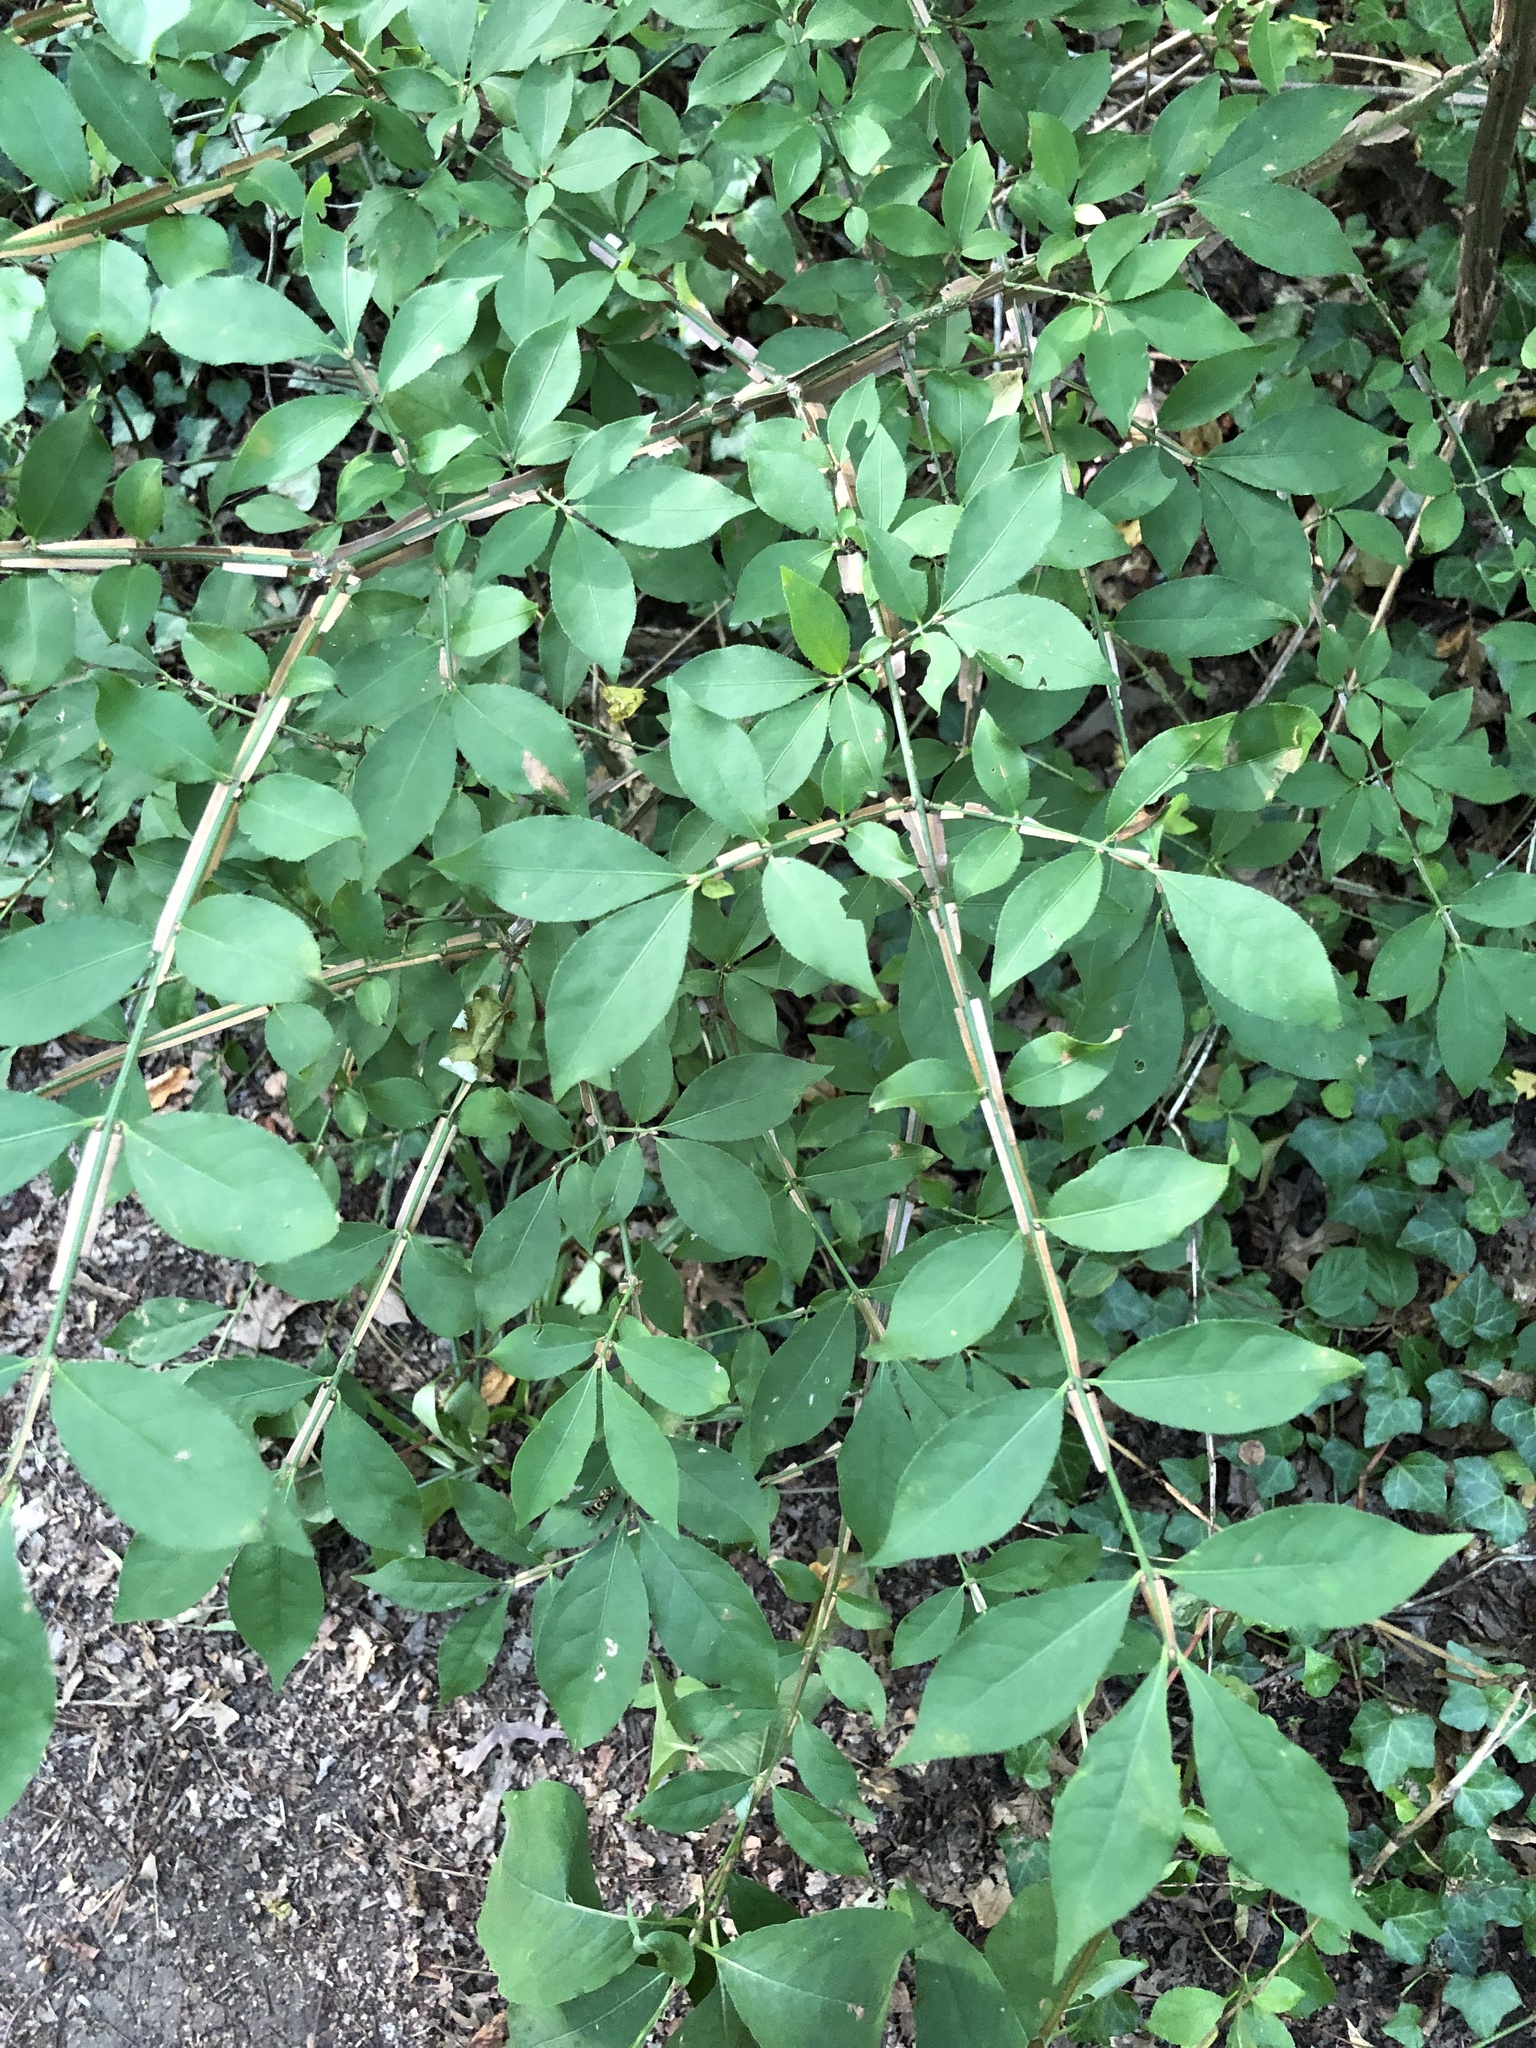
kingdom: Plantae
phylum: Tracheophyta
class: Magnoliopsida
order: Celastrales
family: Celastraceae
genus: Euonymus
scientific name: Euonymus alatus
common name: Winged euonymus
